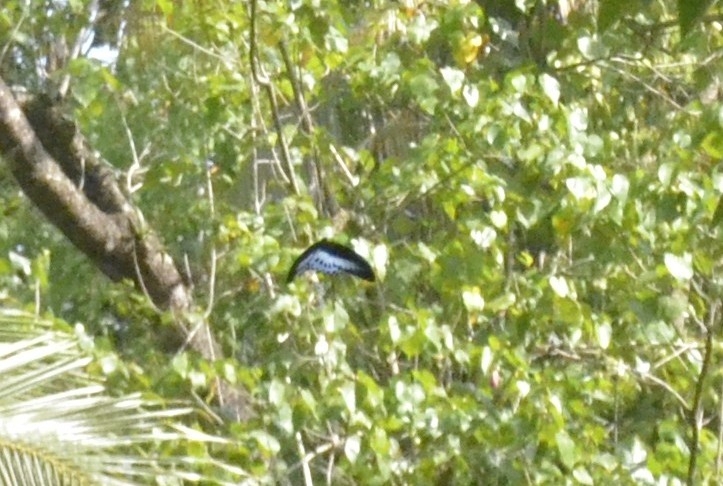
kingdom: Animalia
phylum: Arthropoda
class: Insecta
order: Lepidoptera
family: Papilionidae
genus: Papilio
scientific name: Papilio memnon
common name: Great mormon
